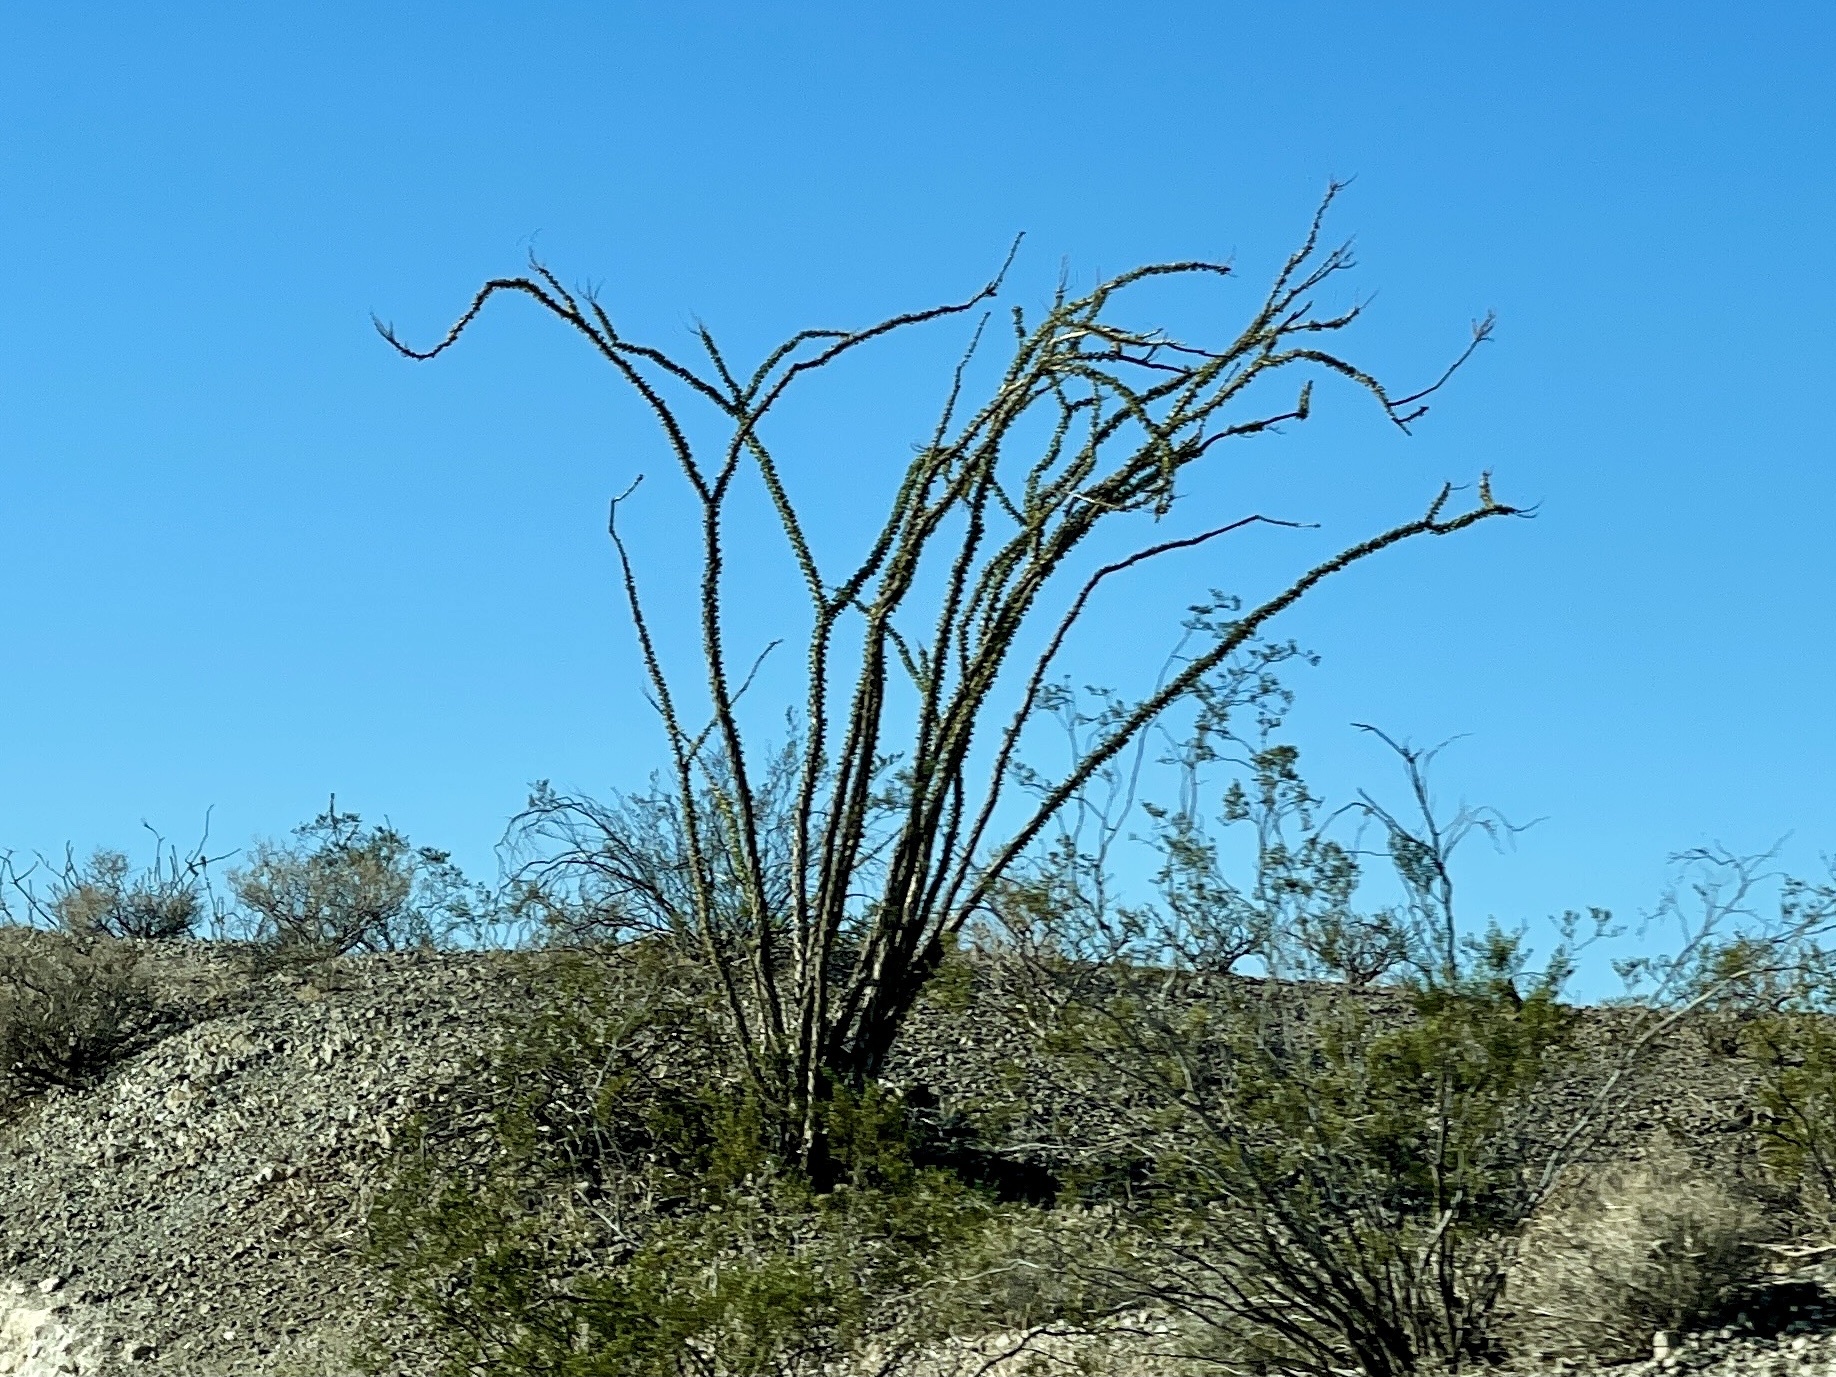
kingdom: Plantae
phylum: Tracheophyta
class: Magnoliopsida
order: Ericales
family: Fouquieriaceae
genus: Fouquieria
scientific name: Fouquieria splendens
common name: Vine-cactus
